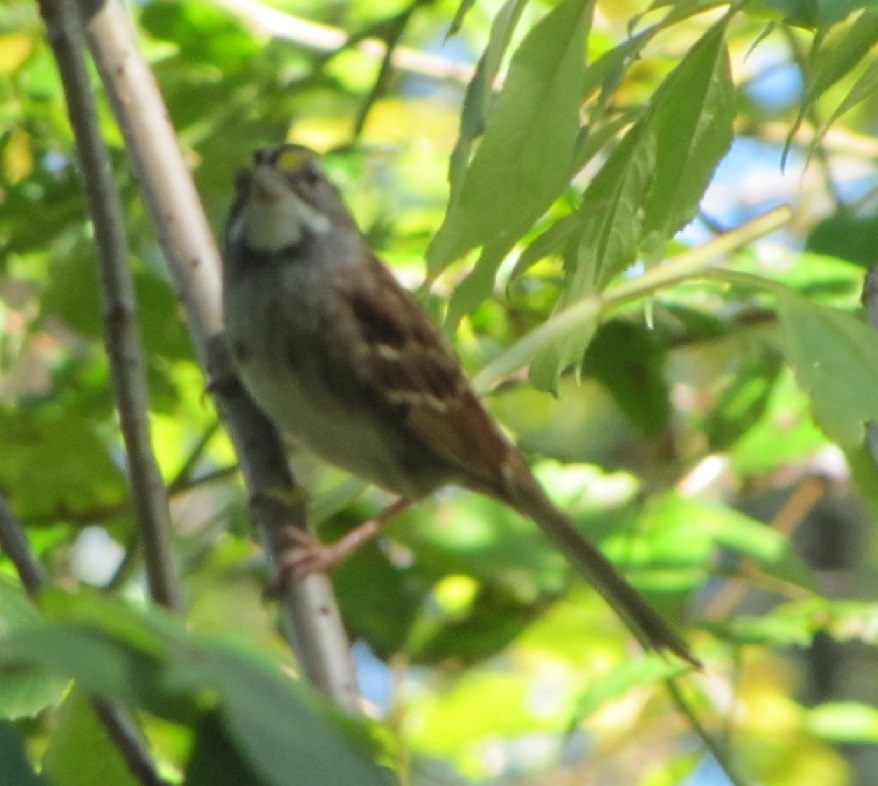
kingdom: Animalia
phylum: Chordata
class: Aves
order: Passeriformes
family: Passerellidae
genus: Zonotrichia
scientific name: Zonotrichia albicollis
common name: White-throated sparrow
